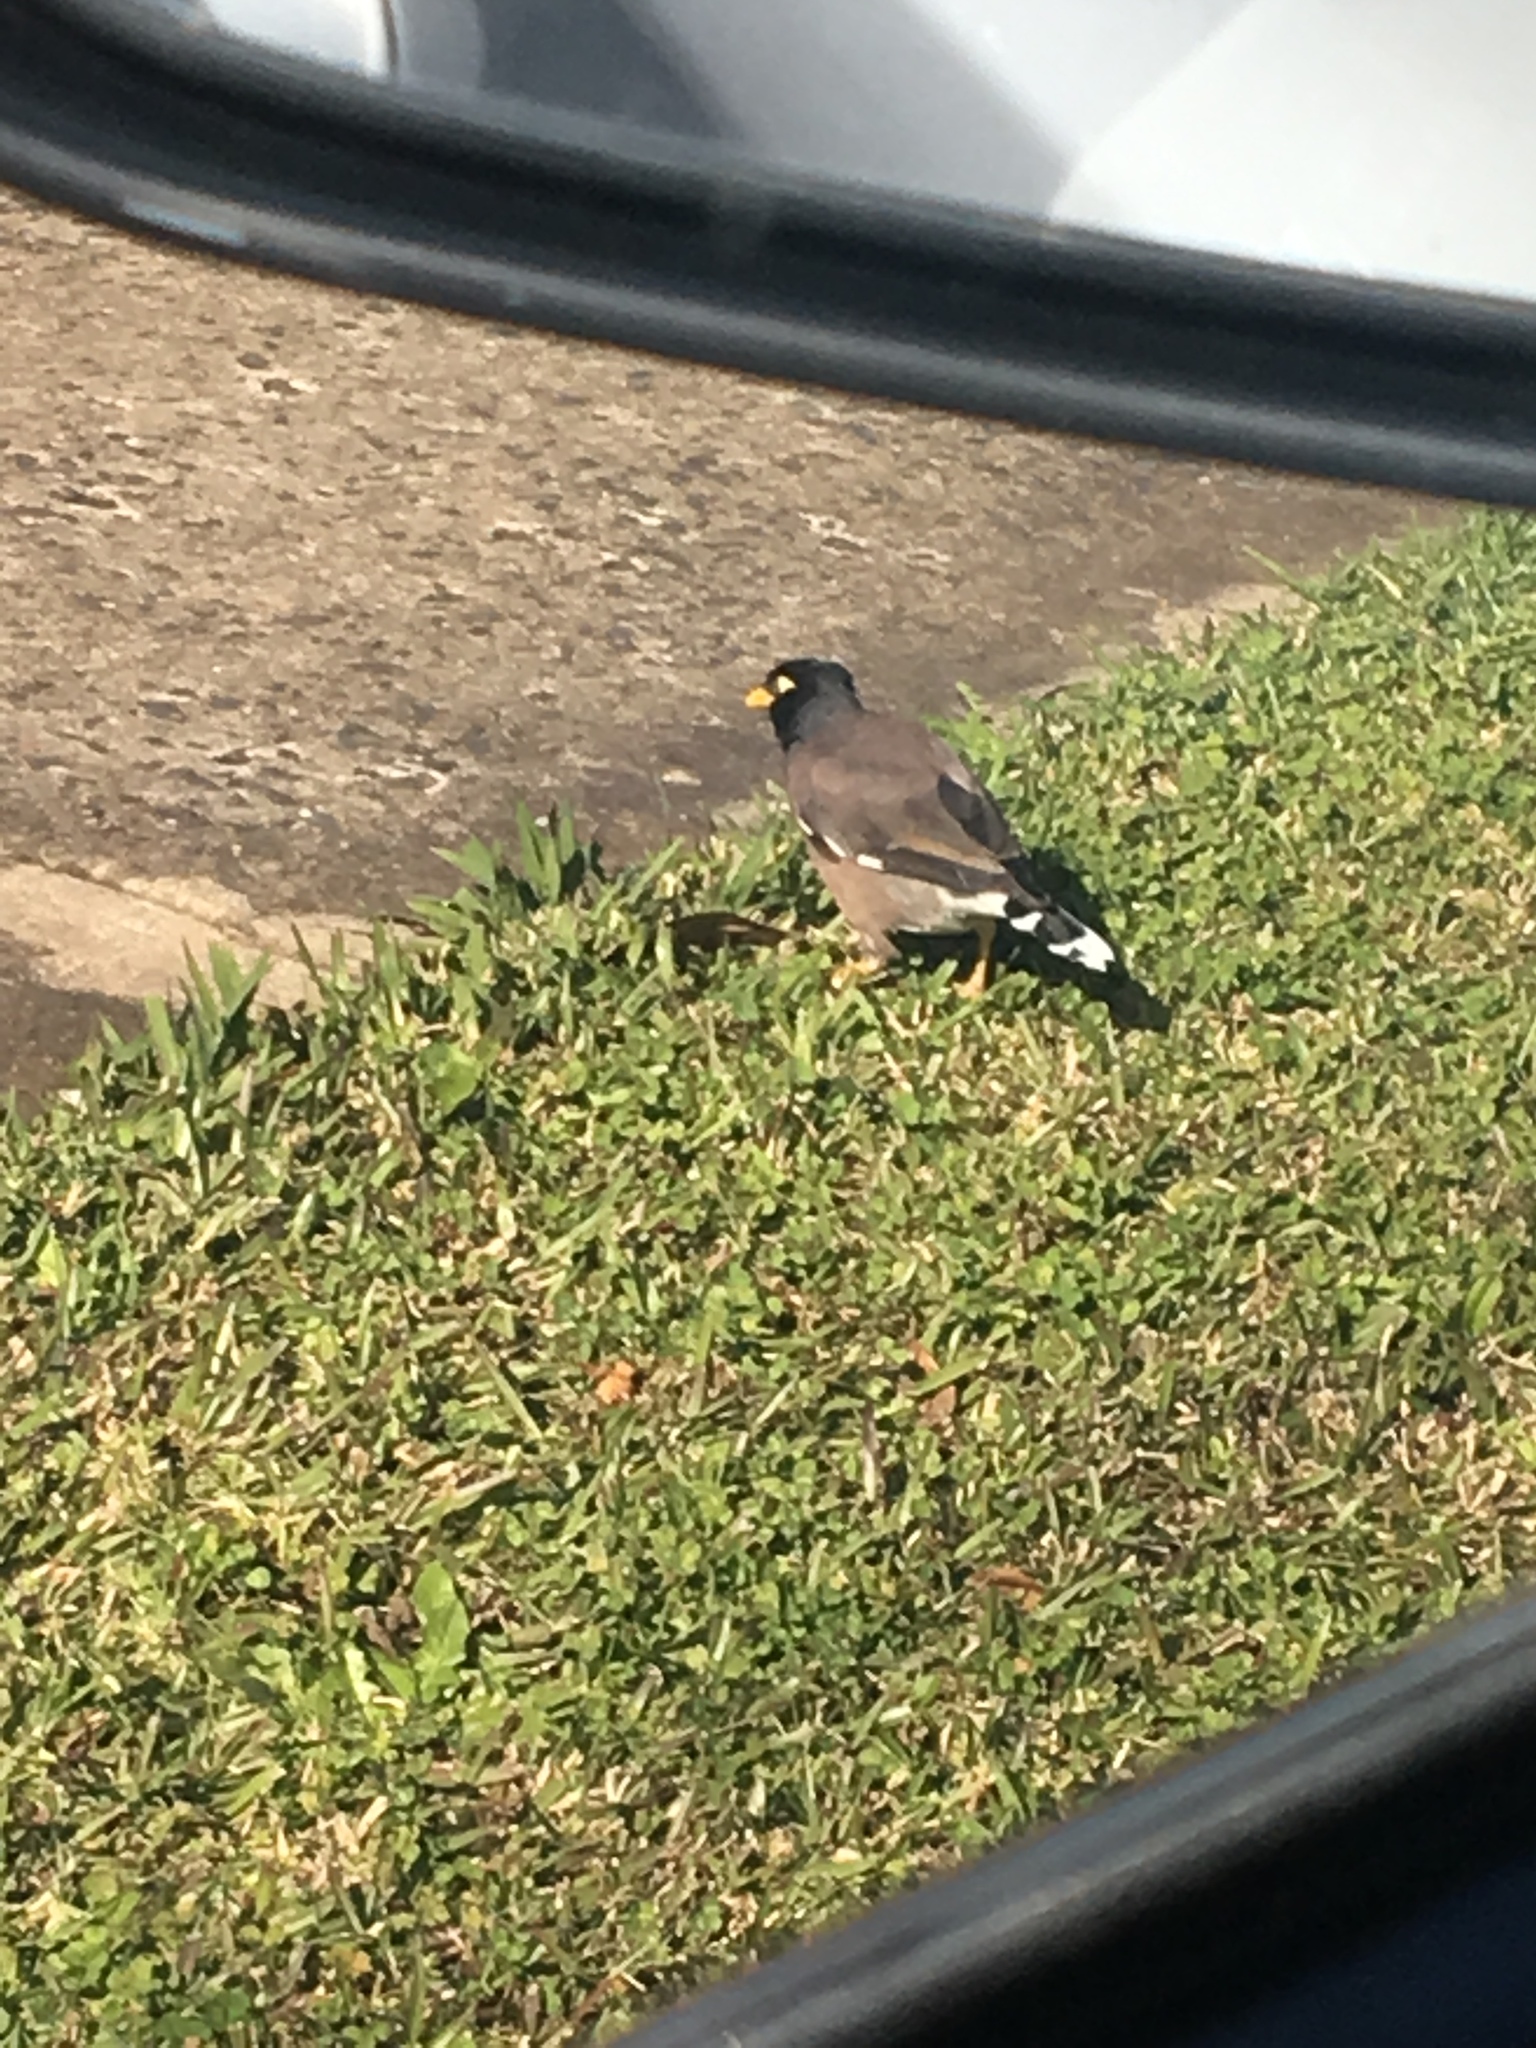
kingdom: Animalia
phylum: Chordata
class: Aves
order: Passeriformes
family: Sturnidae
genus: Acridotheres
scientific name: Acridotheres tristis
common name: Common myna
